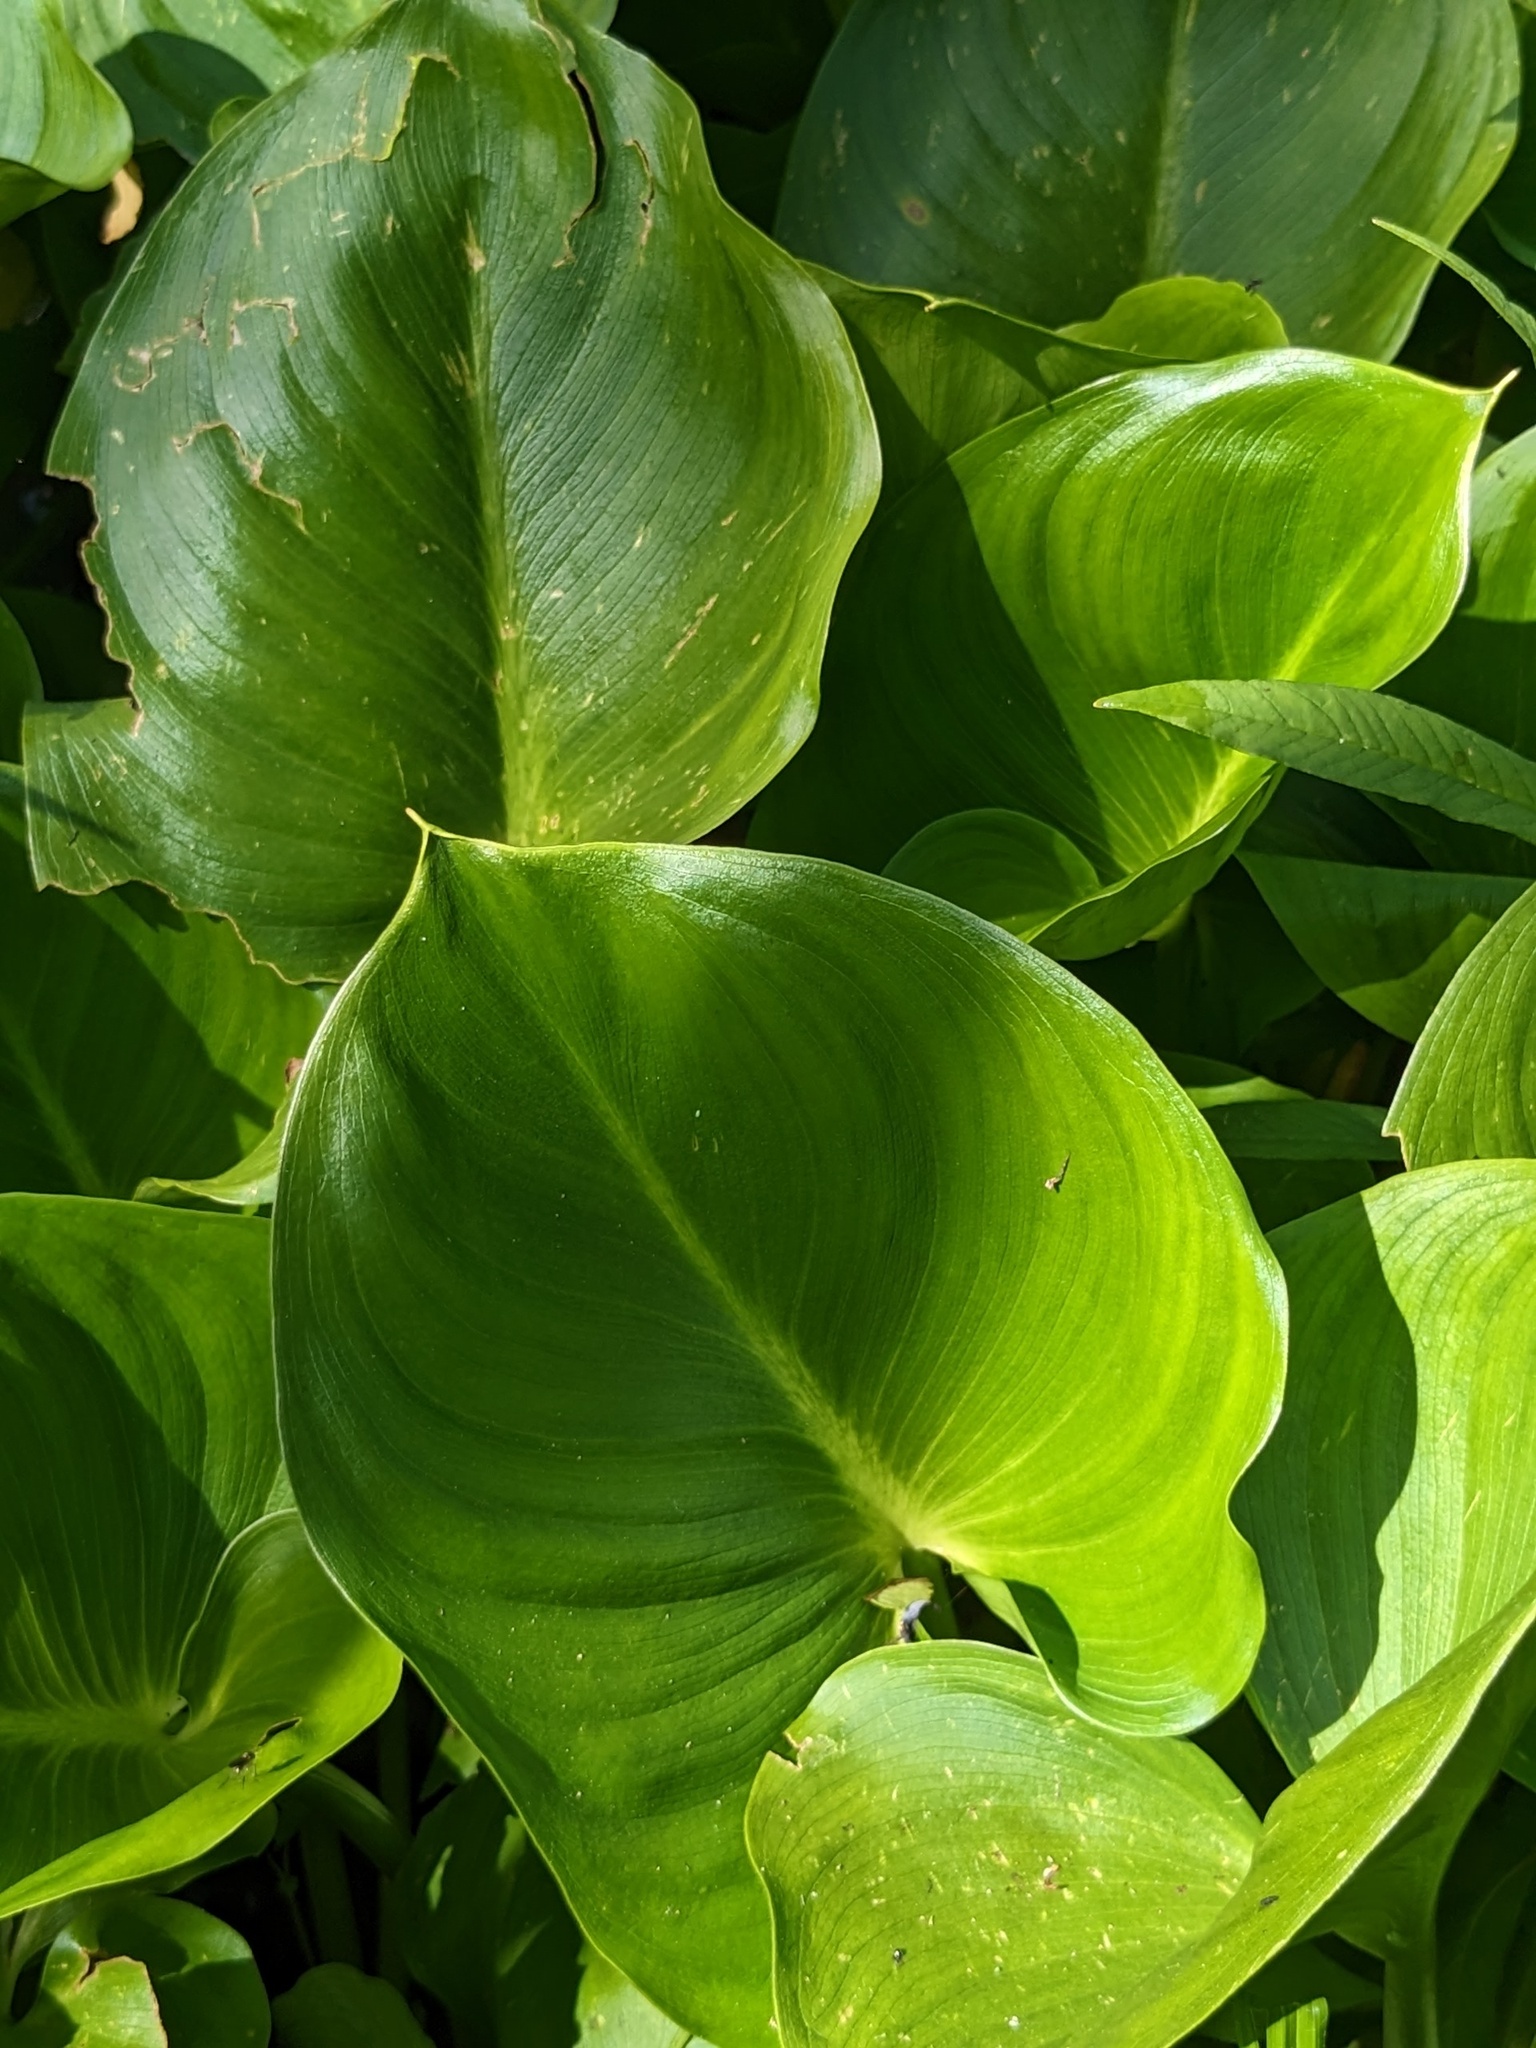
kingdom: Plantae
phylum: Tracheophyta
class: Liliopsida
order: Alismatales
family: Araceae
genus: Calla
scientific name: Calla palustris
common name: Bog arum
